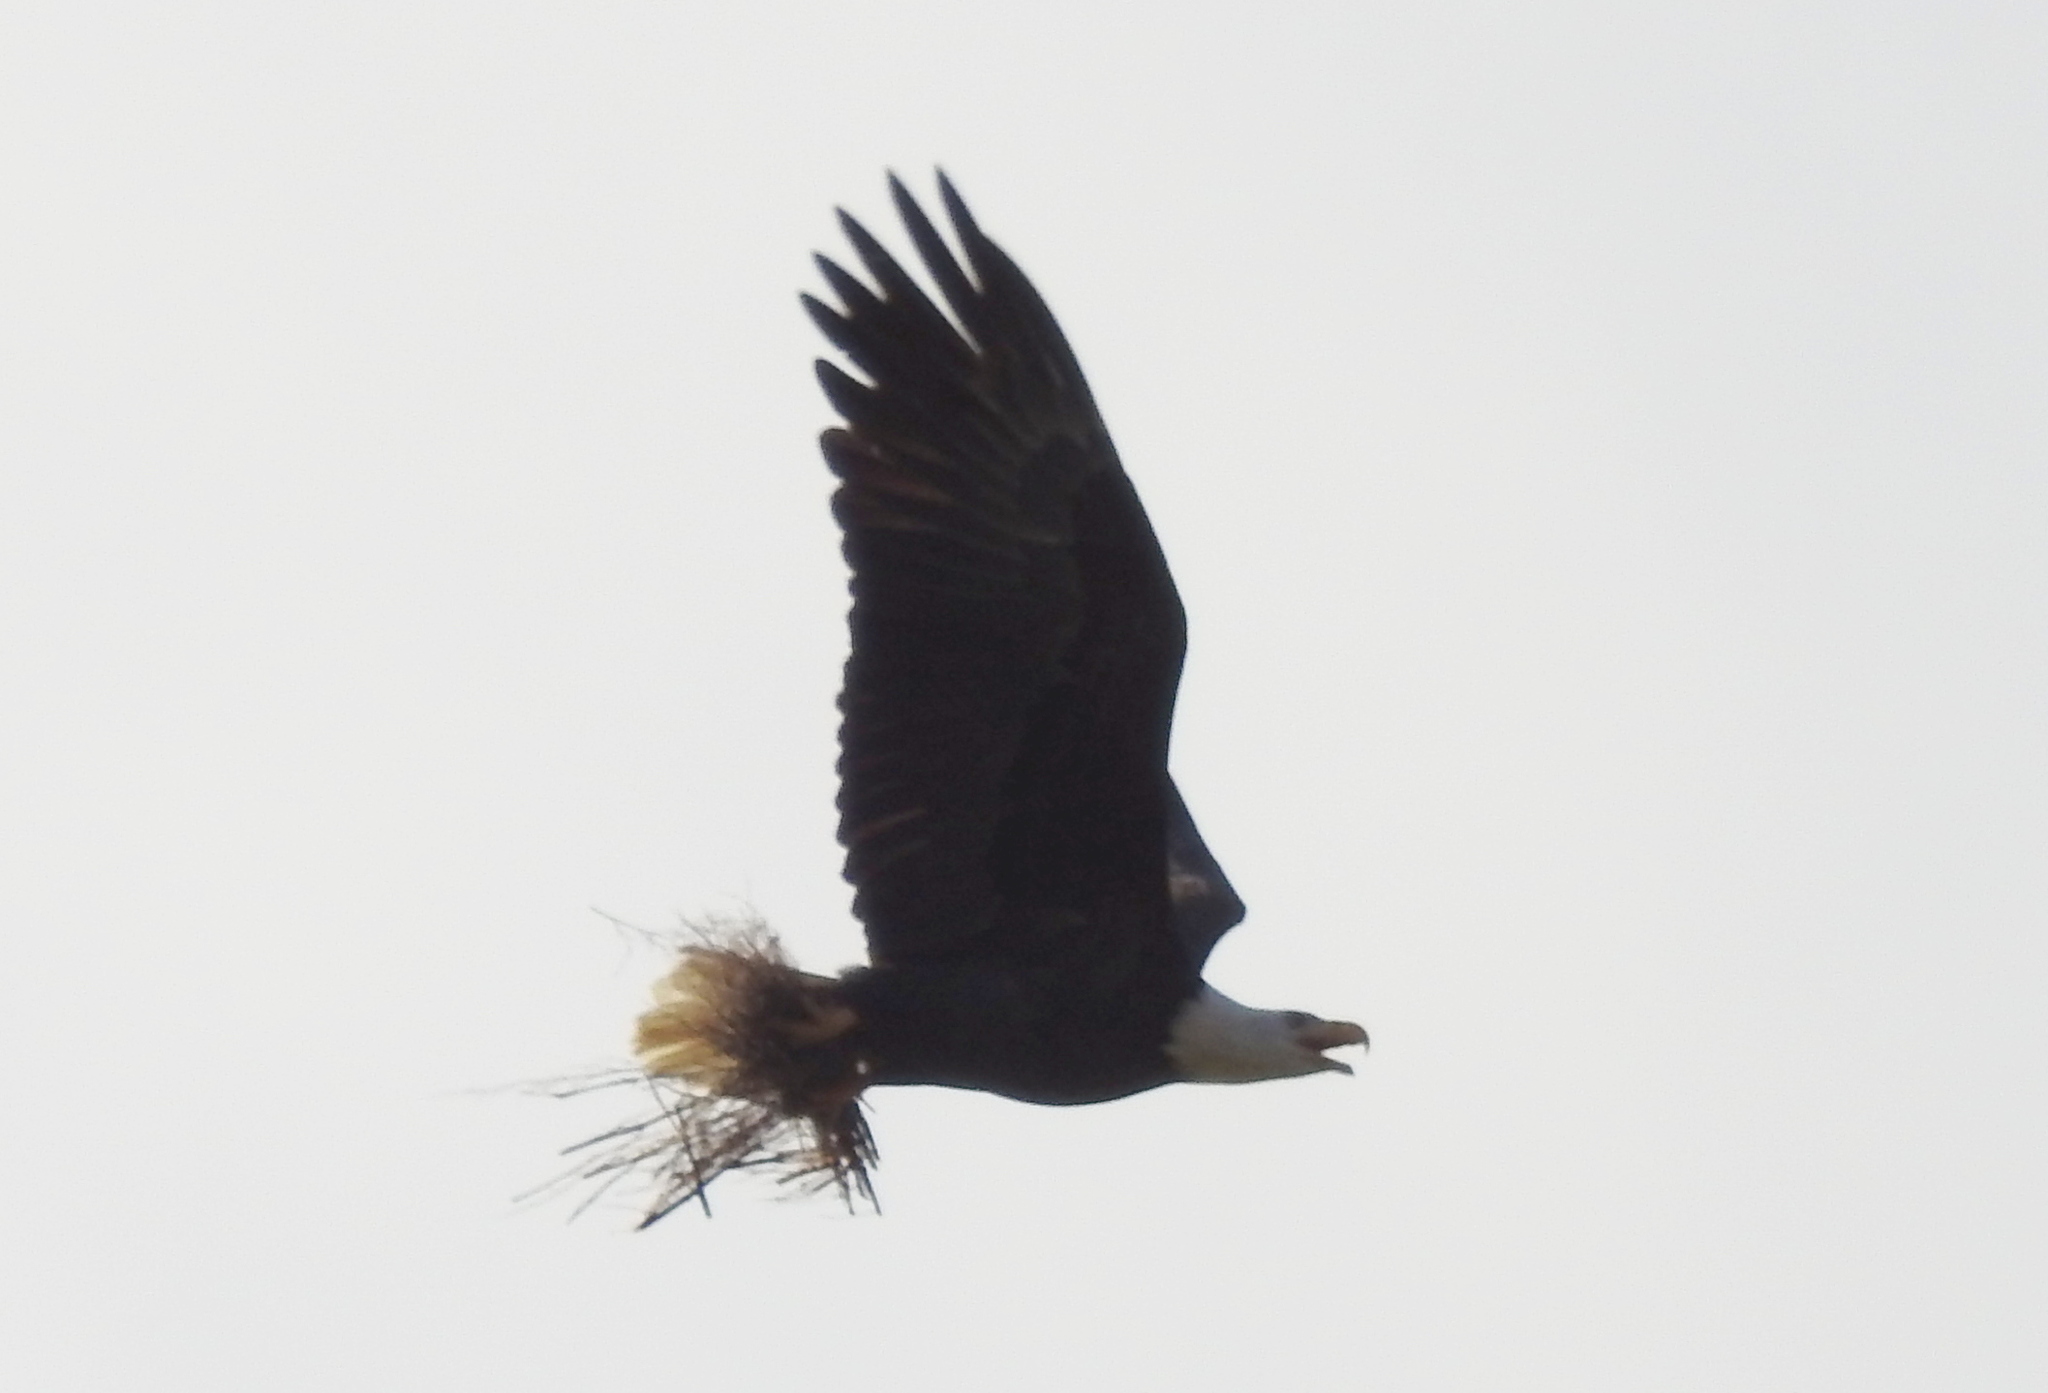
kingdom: Animalia
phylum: Chordata
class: Aves
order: Accipitriformes
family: Accipitridae
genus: Haliaeetus
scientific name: Haliaeetus leucocephalus
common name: Bald eagle
